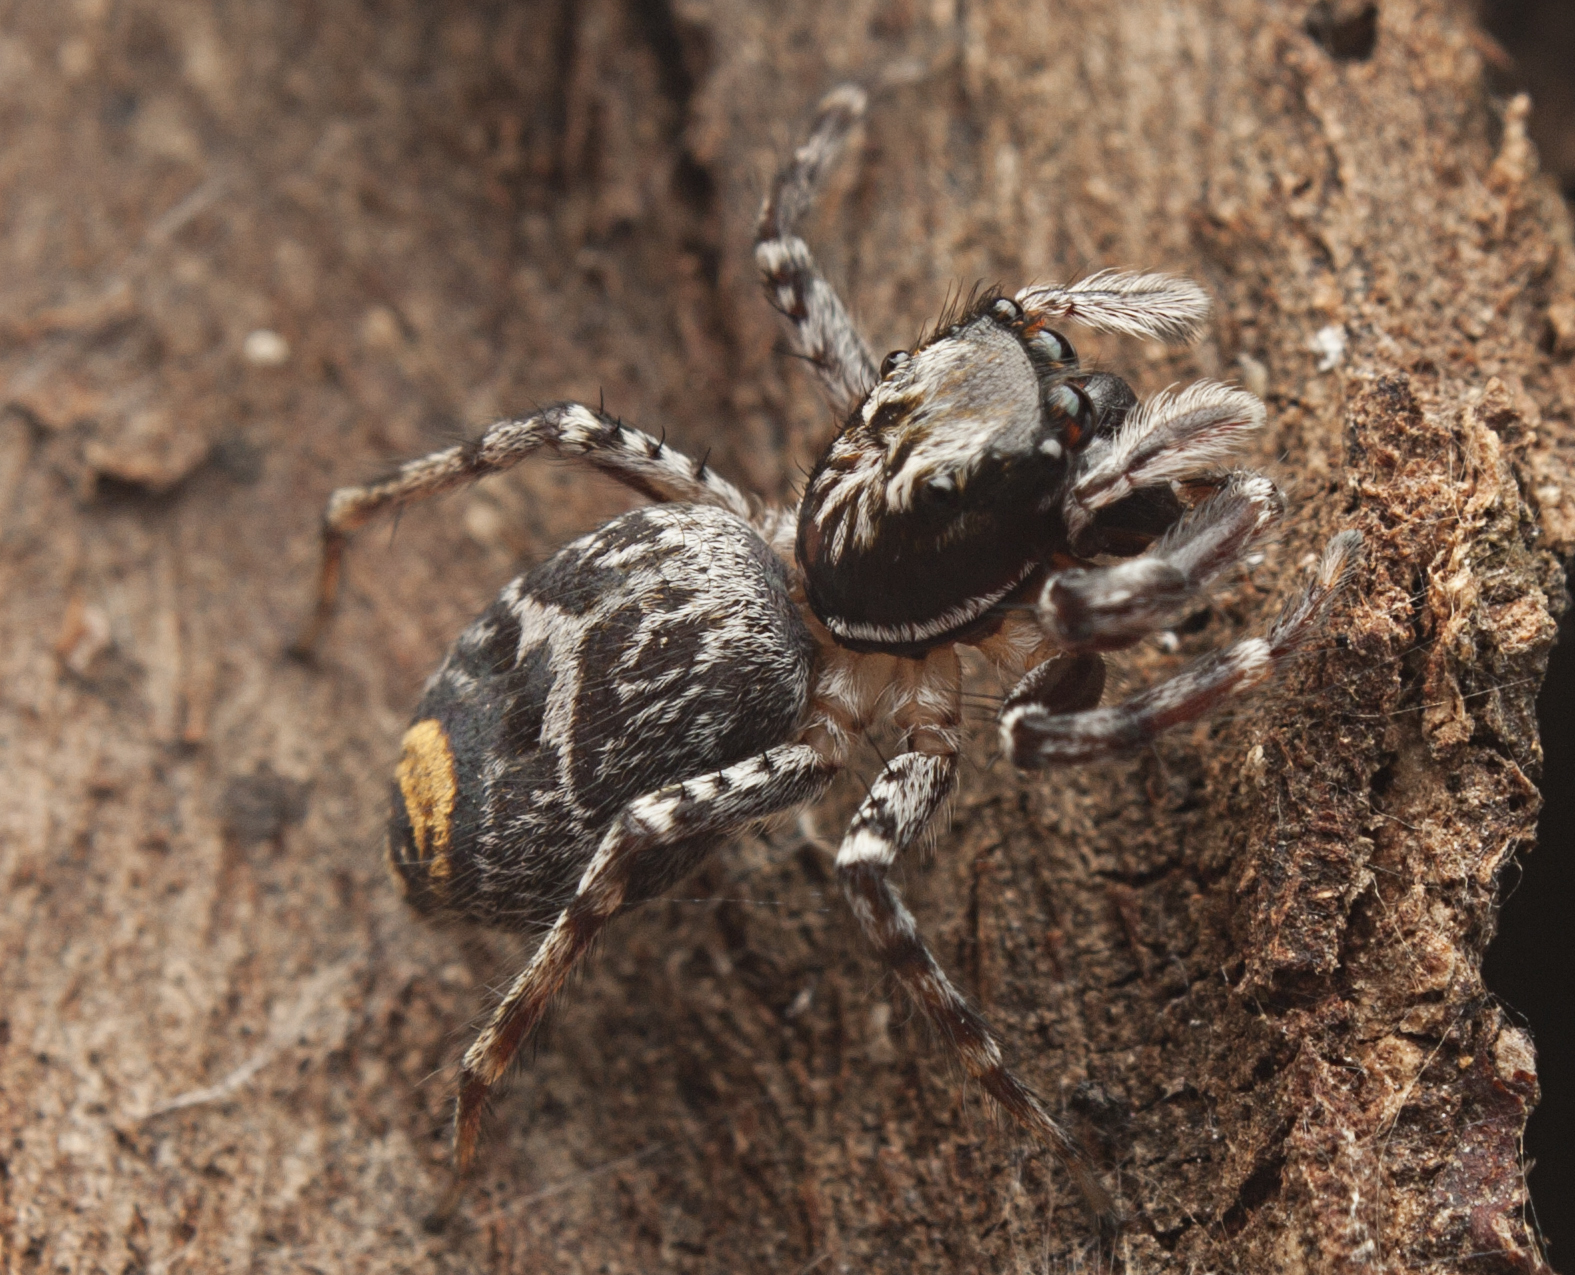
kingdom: Animalia
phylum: Arthropoda
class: Arachnida
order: Araneae
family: Salticidae
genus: Astia
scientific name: Astia
